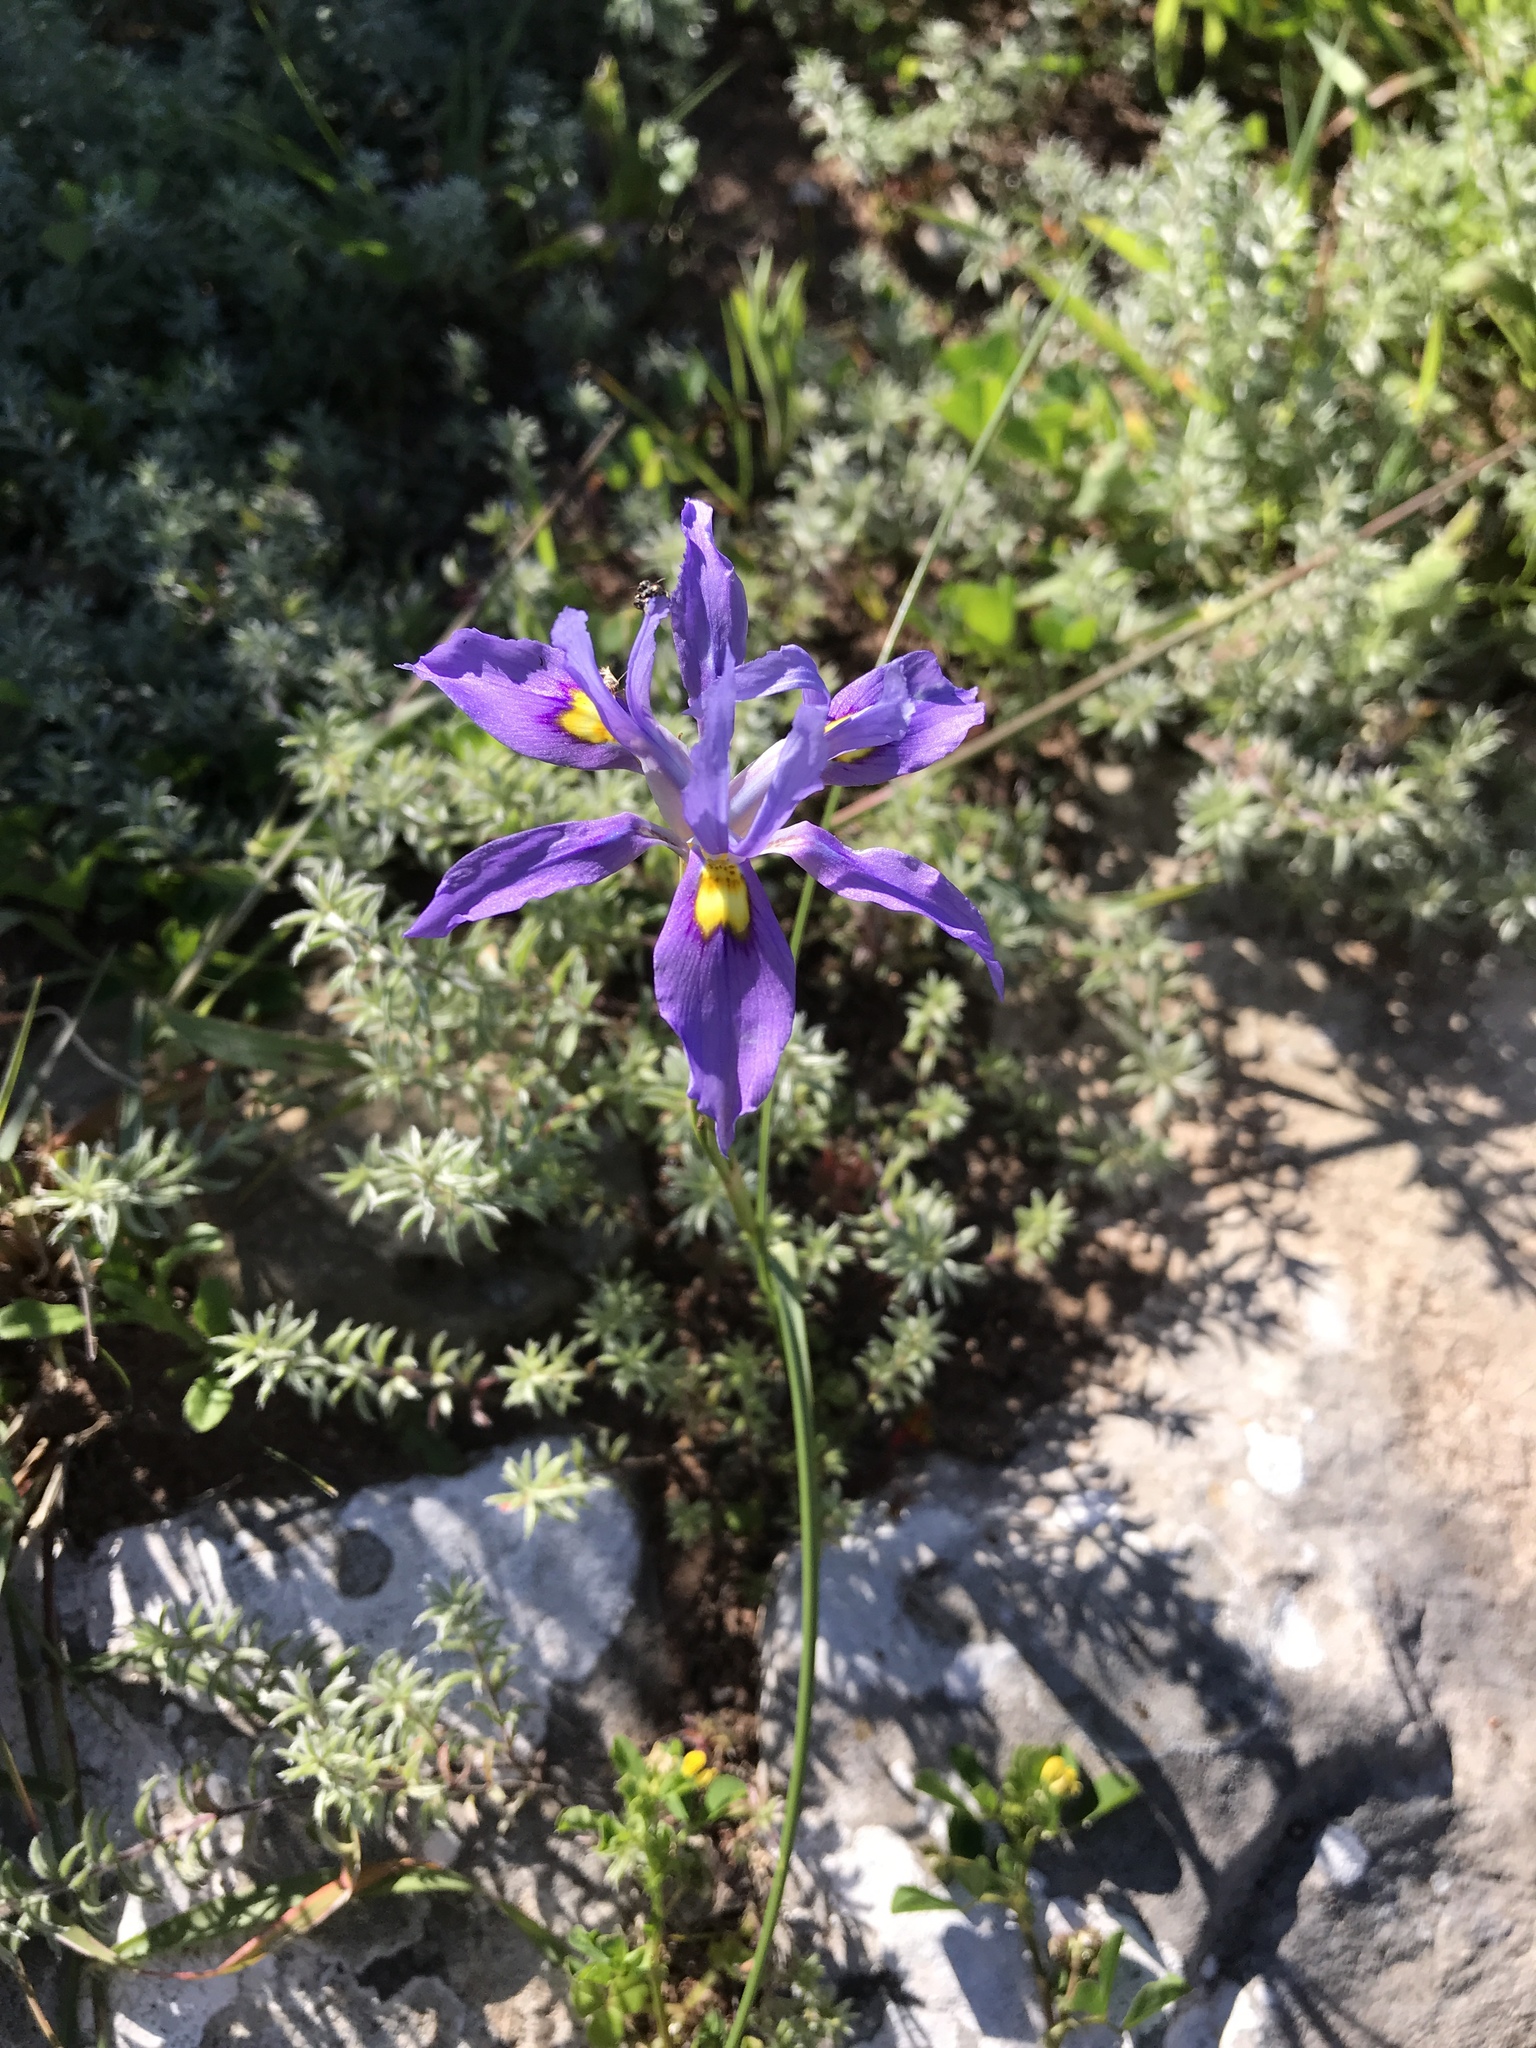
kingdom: Plantae
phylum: Tracheophyta
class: Liliopsida
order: Asparagales
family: Iridaceae
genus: Moraea
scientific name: Moraea fugax
